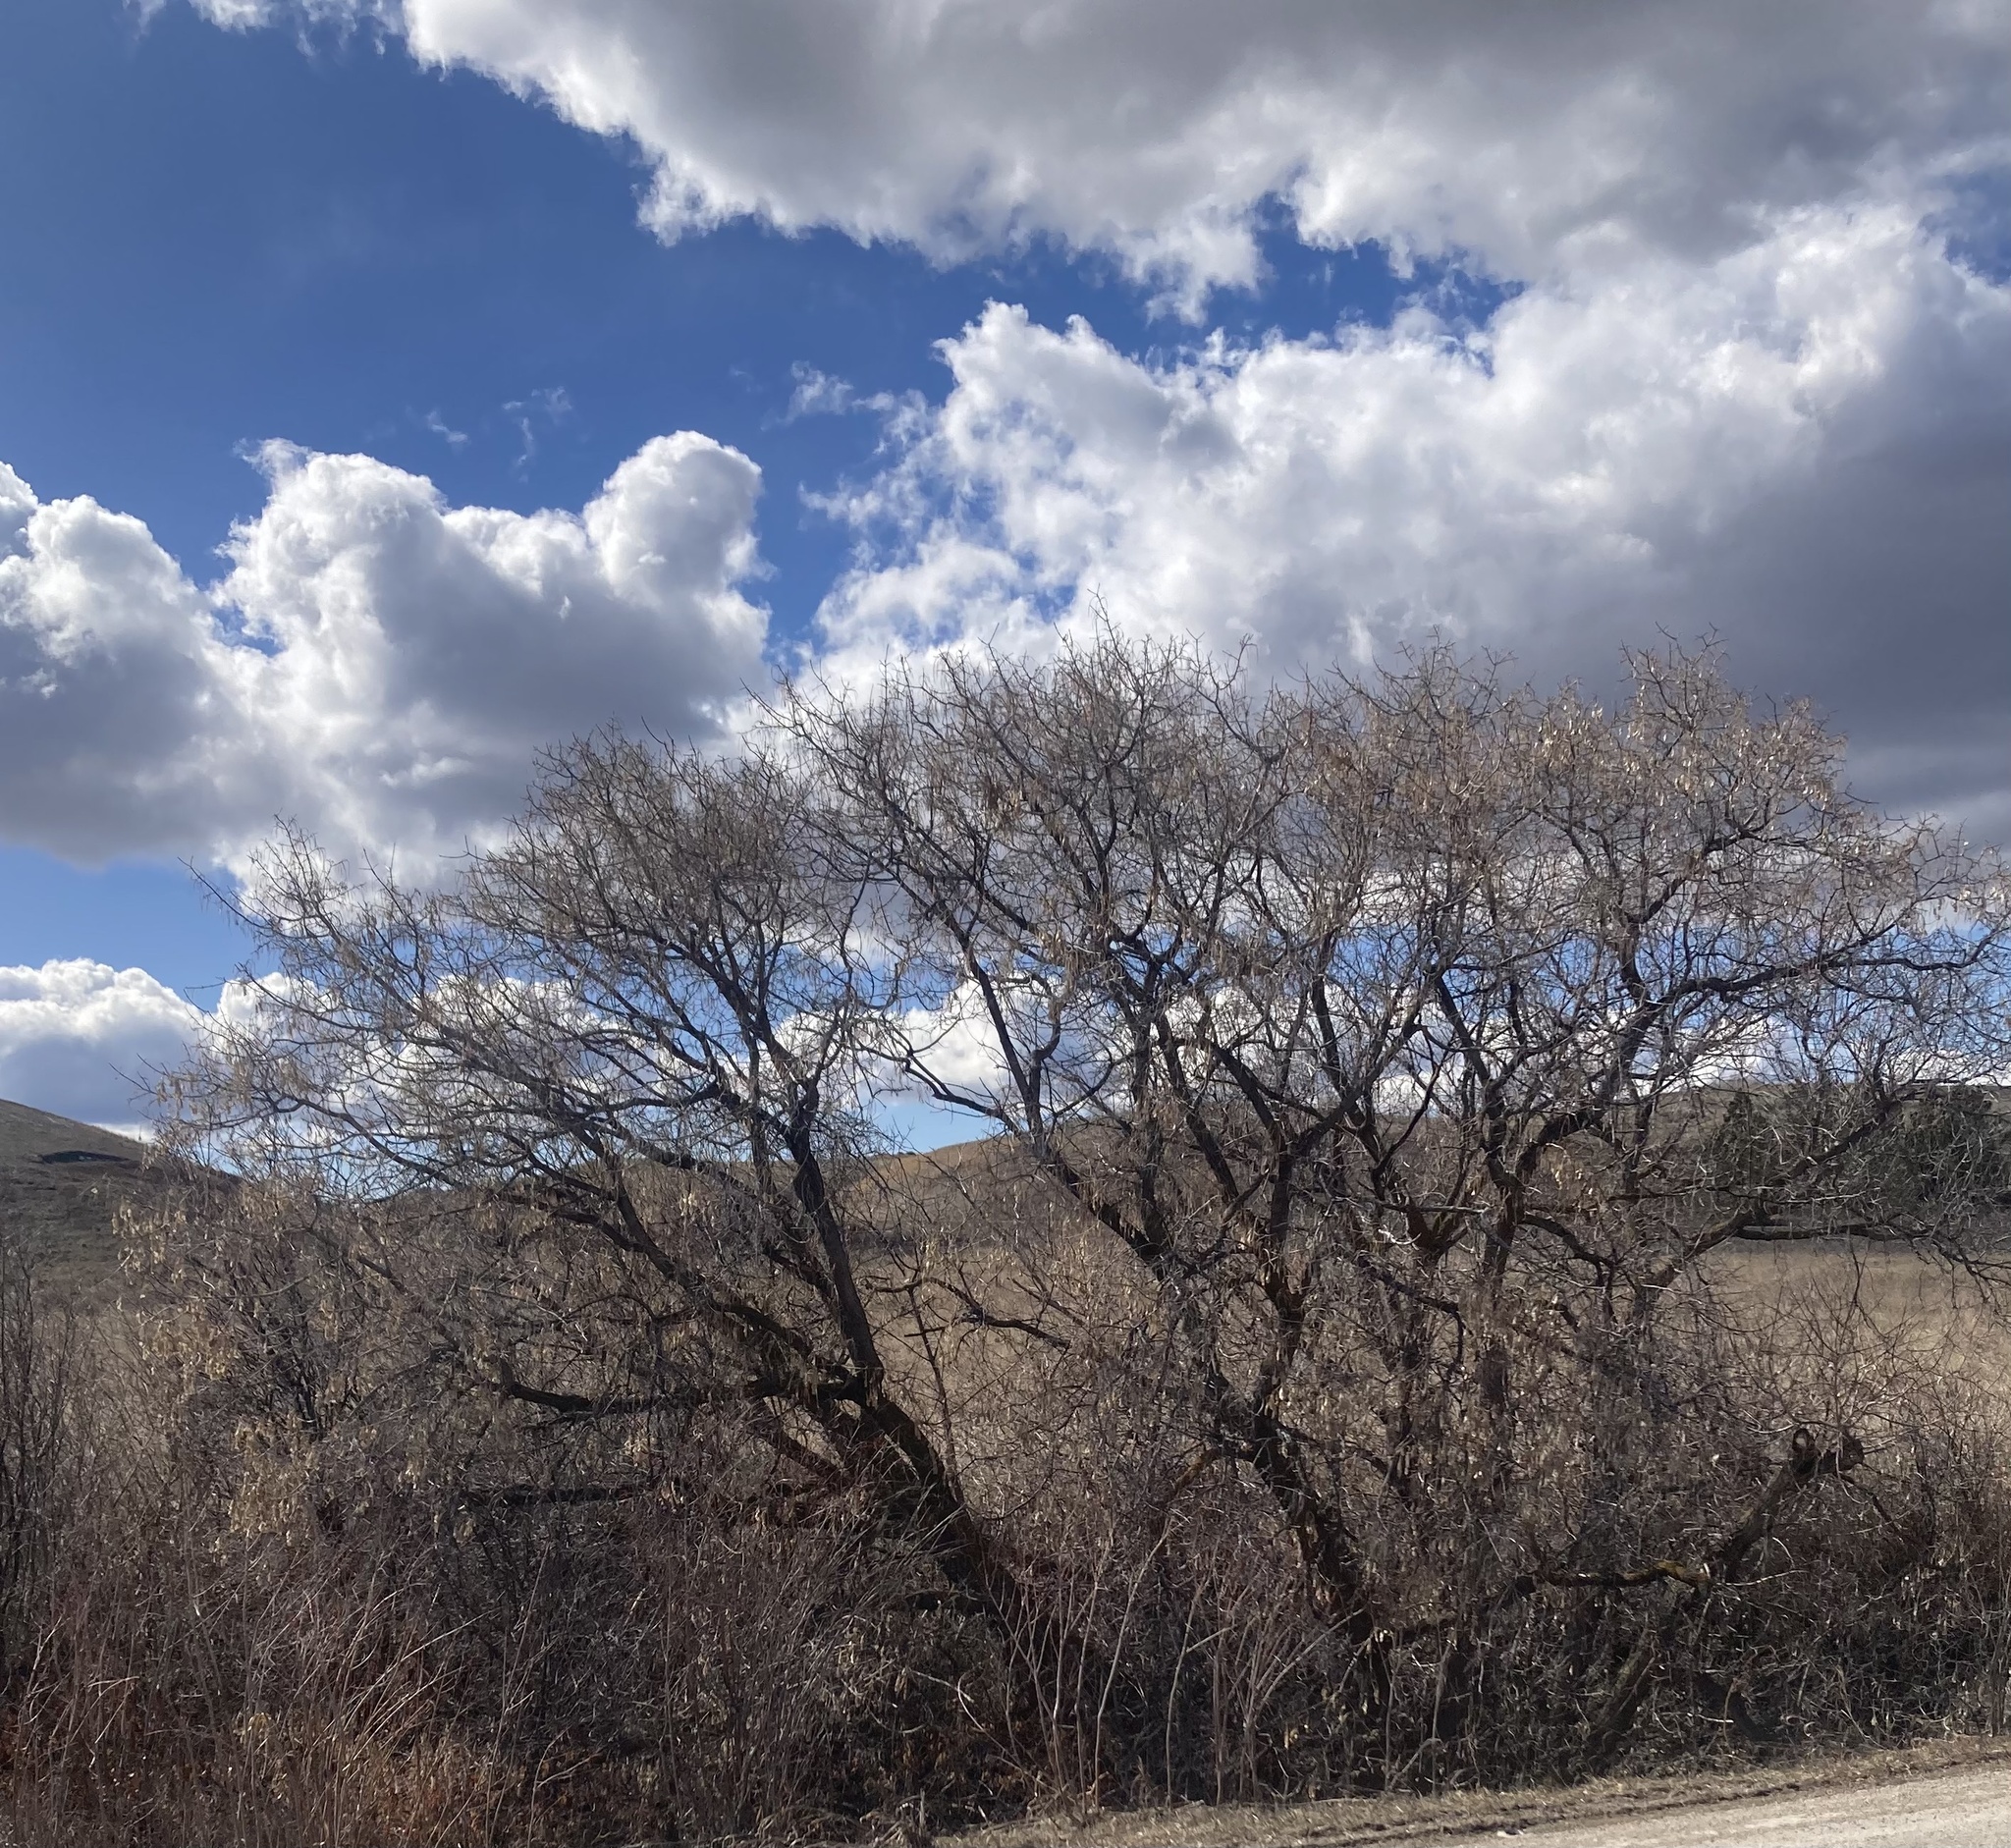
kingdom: Plantae
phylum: Tracheophyta
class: Magnoliopsida
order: Rosales
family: Elaeagnaceae
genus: Elaeagnus
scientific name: Elaeagnus angustifolia
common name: Russian olive
